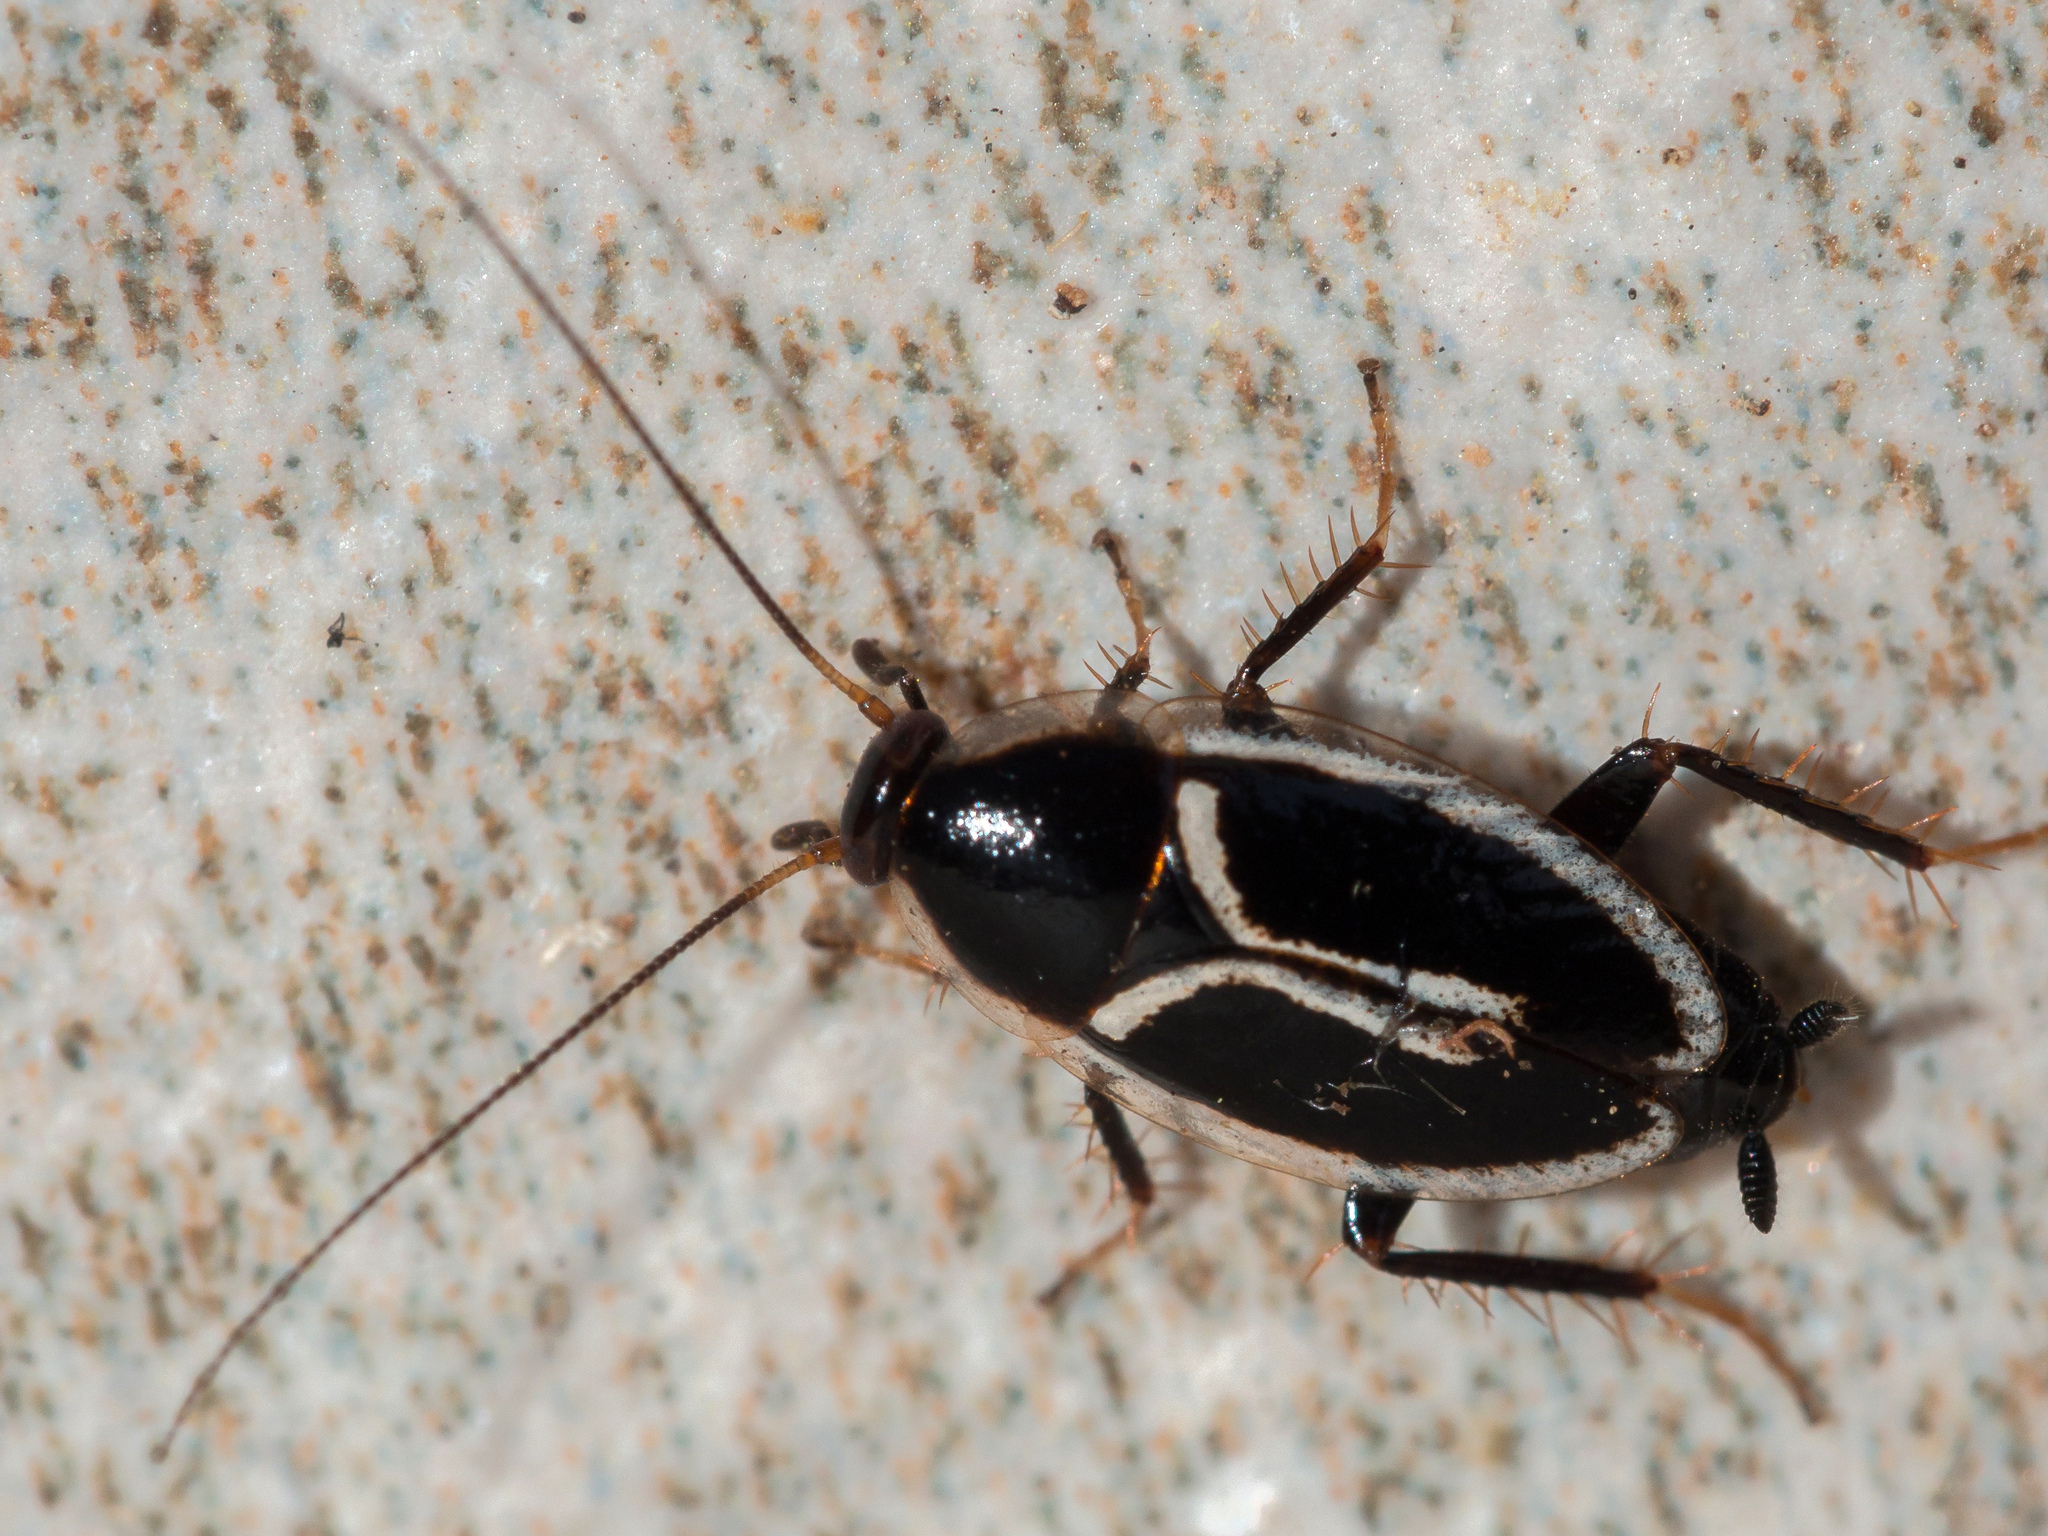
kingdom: Animalia
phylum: Arthropoda
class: Insecta
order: Blattodea
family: Ectobiidae
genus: Phyllodromica
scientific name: Phyllodromica marginata
